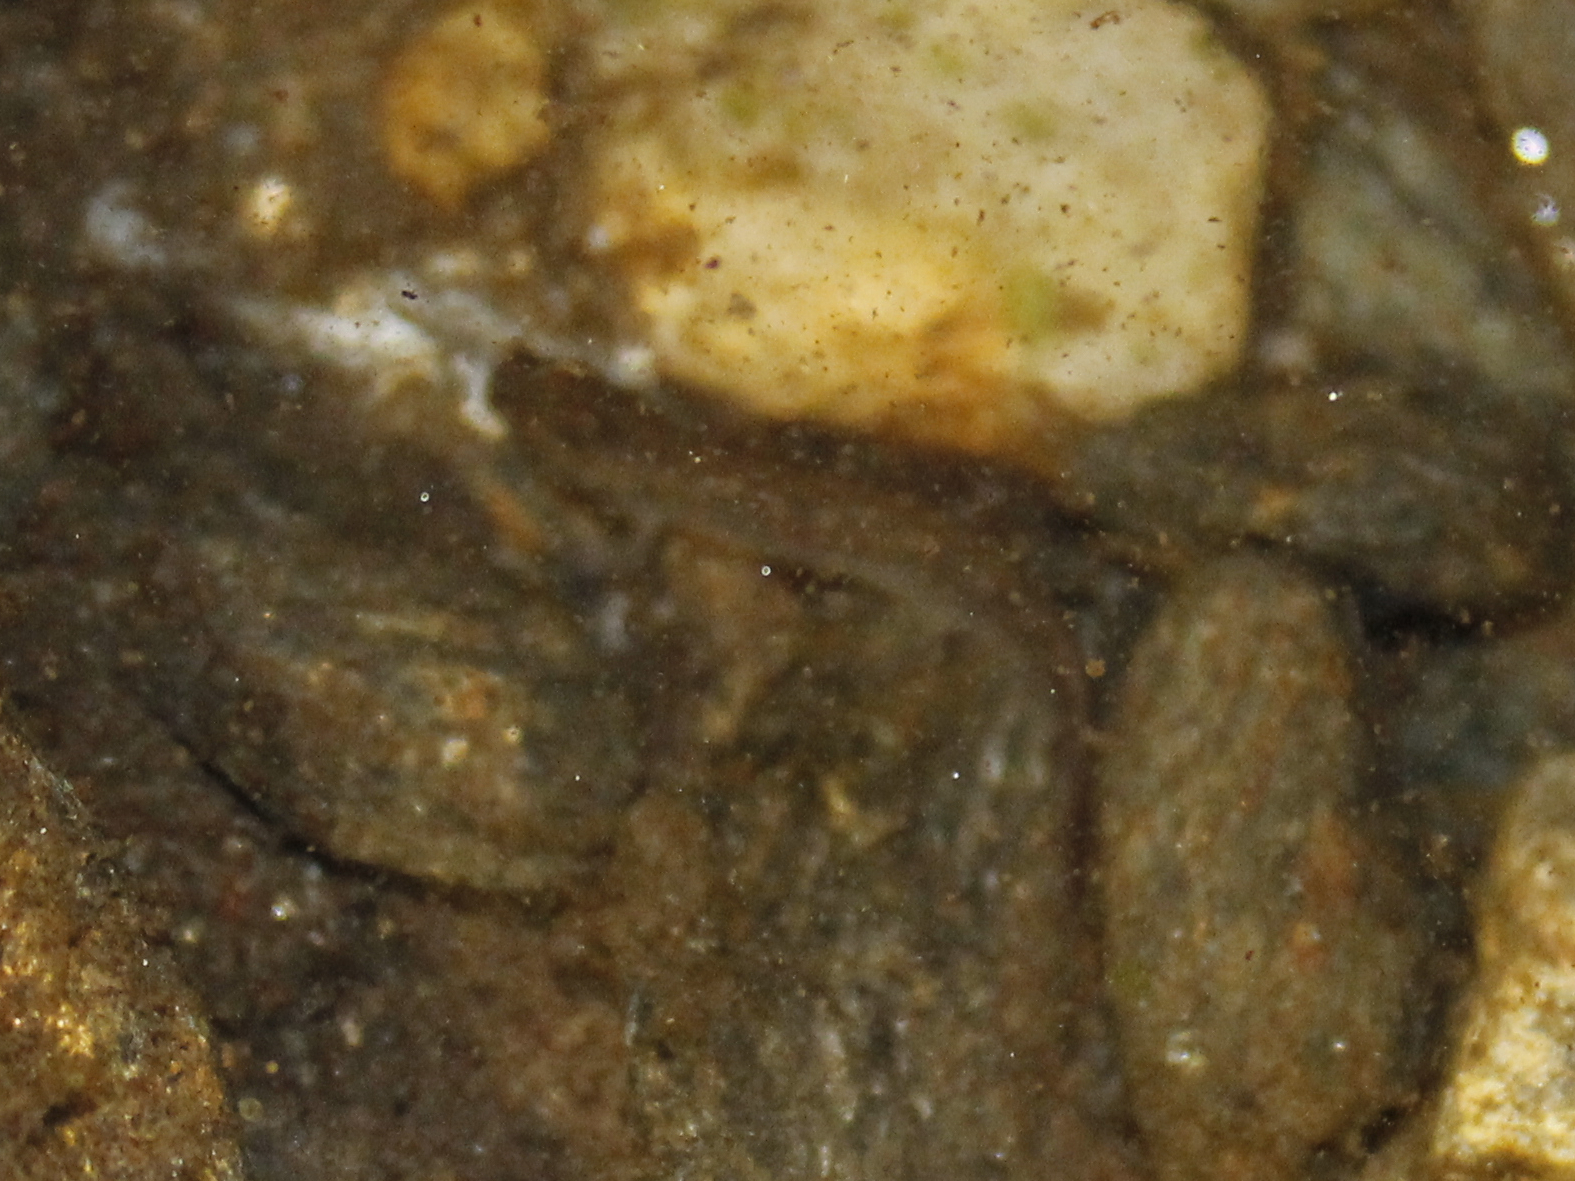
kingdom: Animalia
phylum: Chordata
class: Amphibia
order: Caudata
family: Plethodontidae
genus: Eurycea
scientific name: Eurycea bislineata
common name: Northern two-lined salamander
